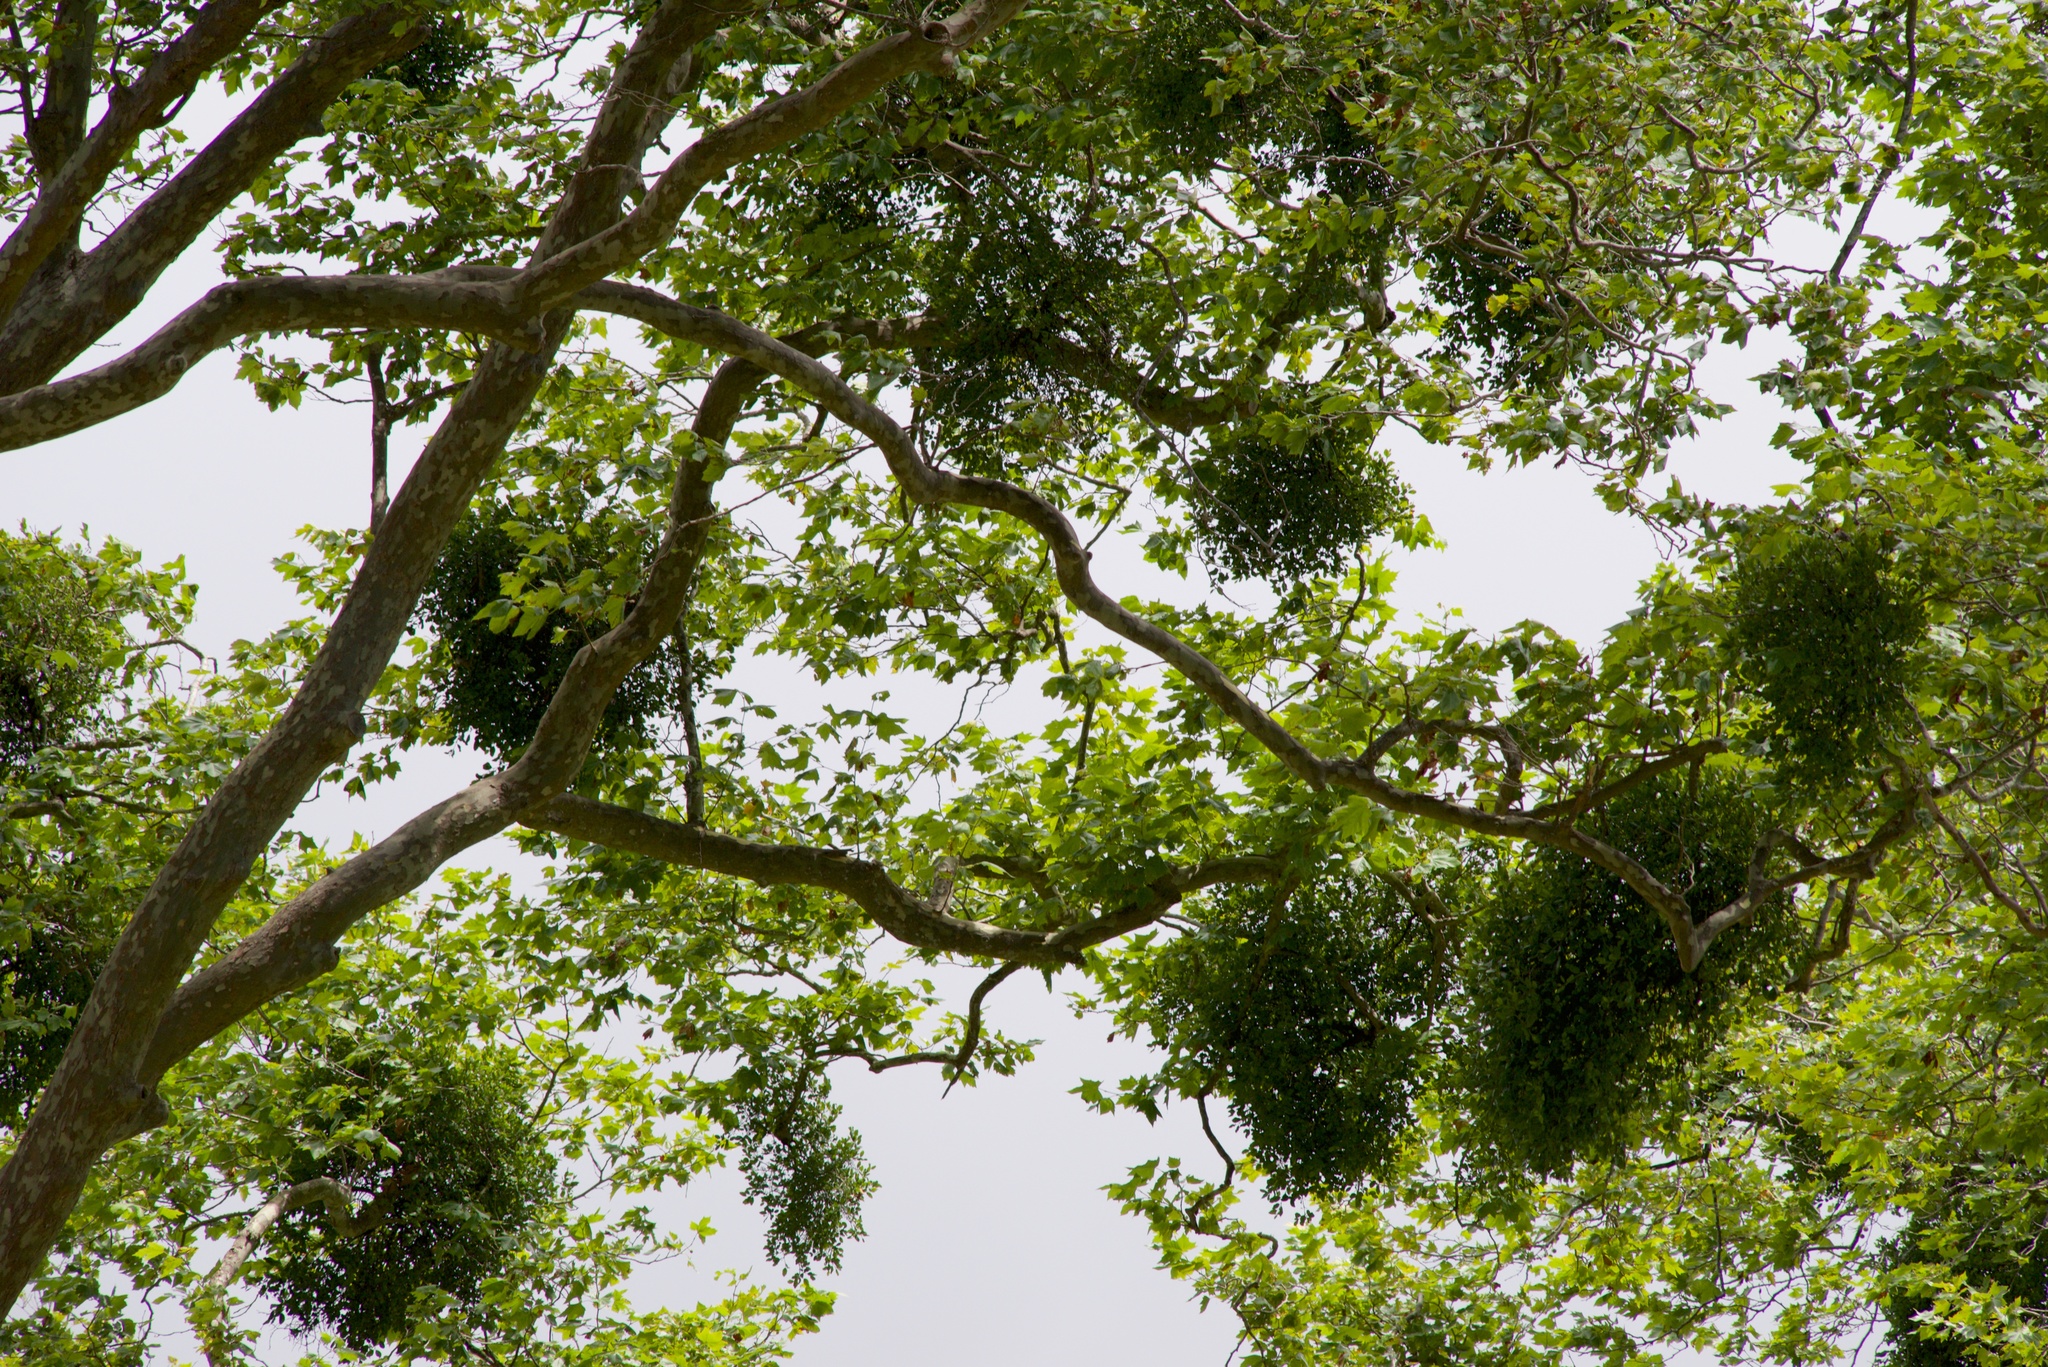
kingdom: Plantae
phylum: Tracheophyta
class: Magnoliopsida
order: Santalales
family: Loranthaceae
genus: Ileostylus
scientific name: Ileostylus micranthus
